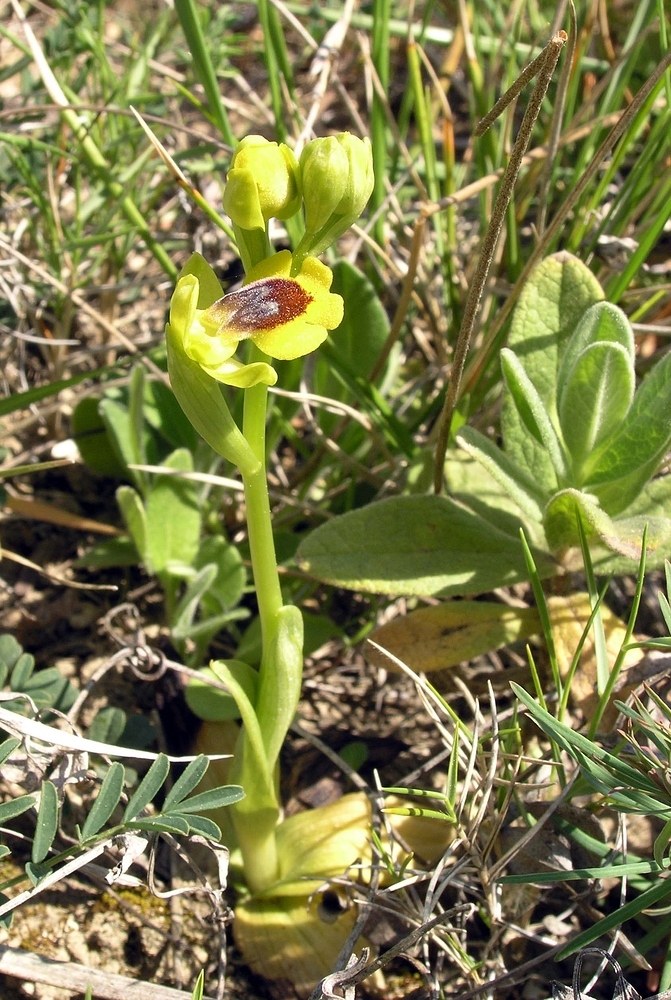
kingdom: Plantae
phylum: Tracheophyta
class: Liliopsida
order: Asparagales
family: Orchidaceae
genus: Ophrys
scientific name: Ophrys lutea
